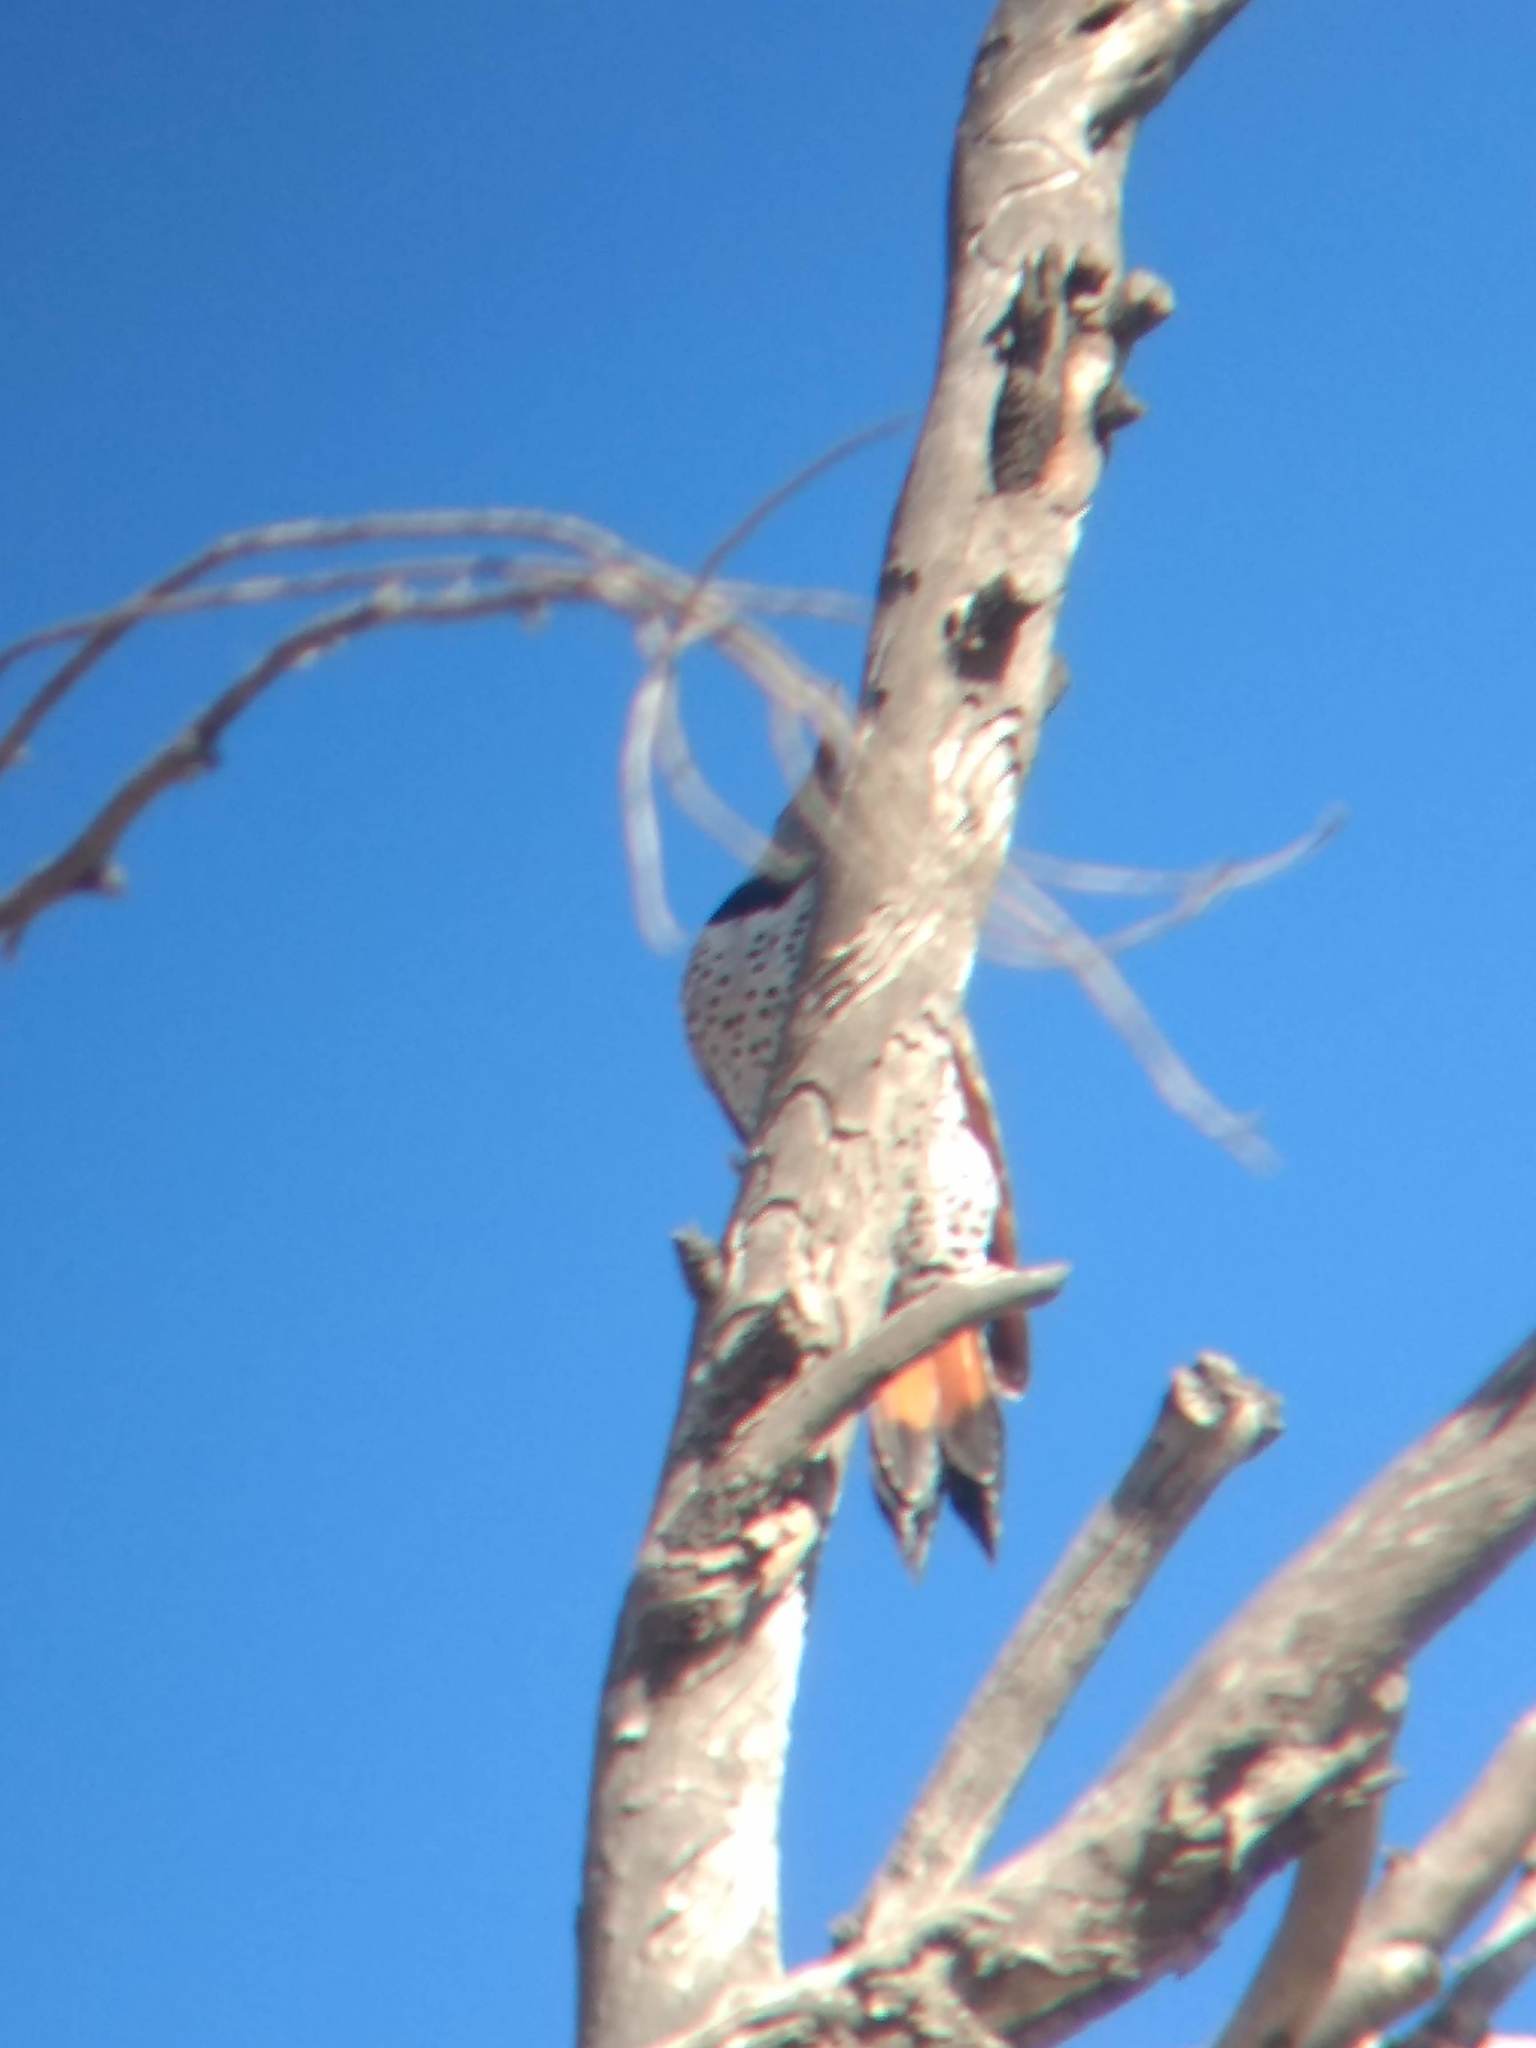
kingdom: Animalia
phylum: Chordata
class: Aves
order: Piciformes
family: Picidae
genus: Colaptes
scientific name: Colaptes auratus
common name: Northern flicker
